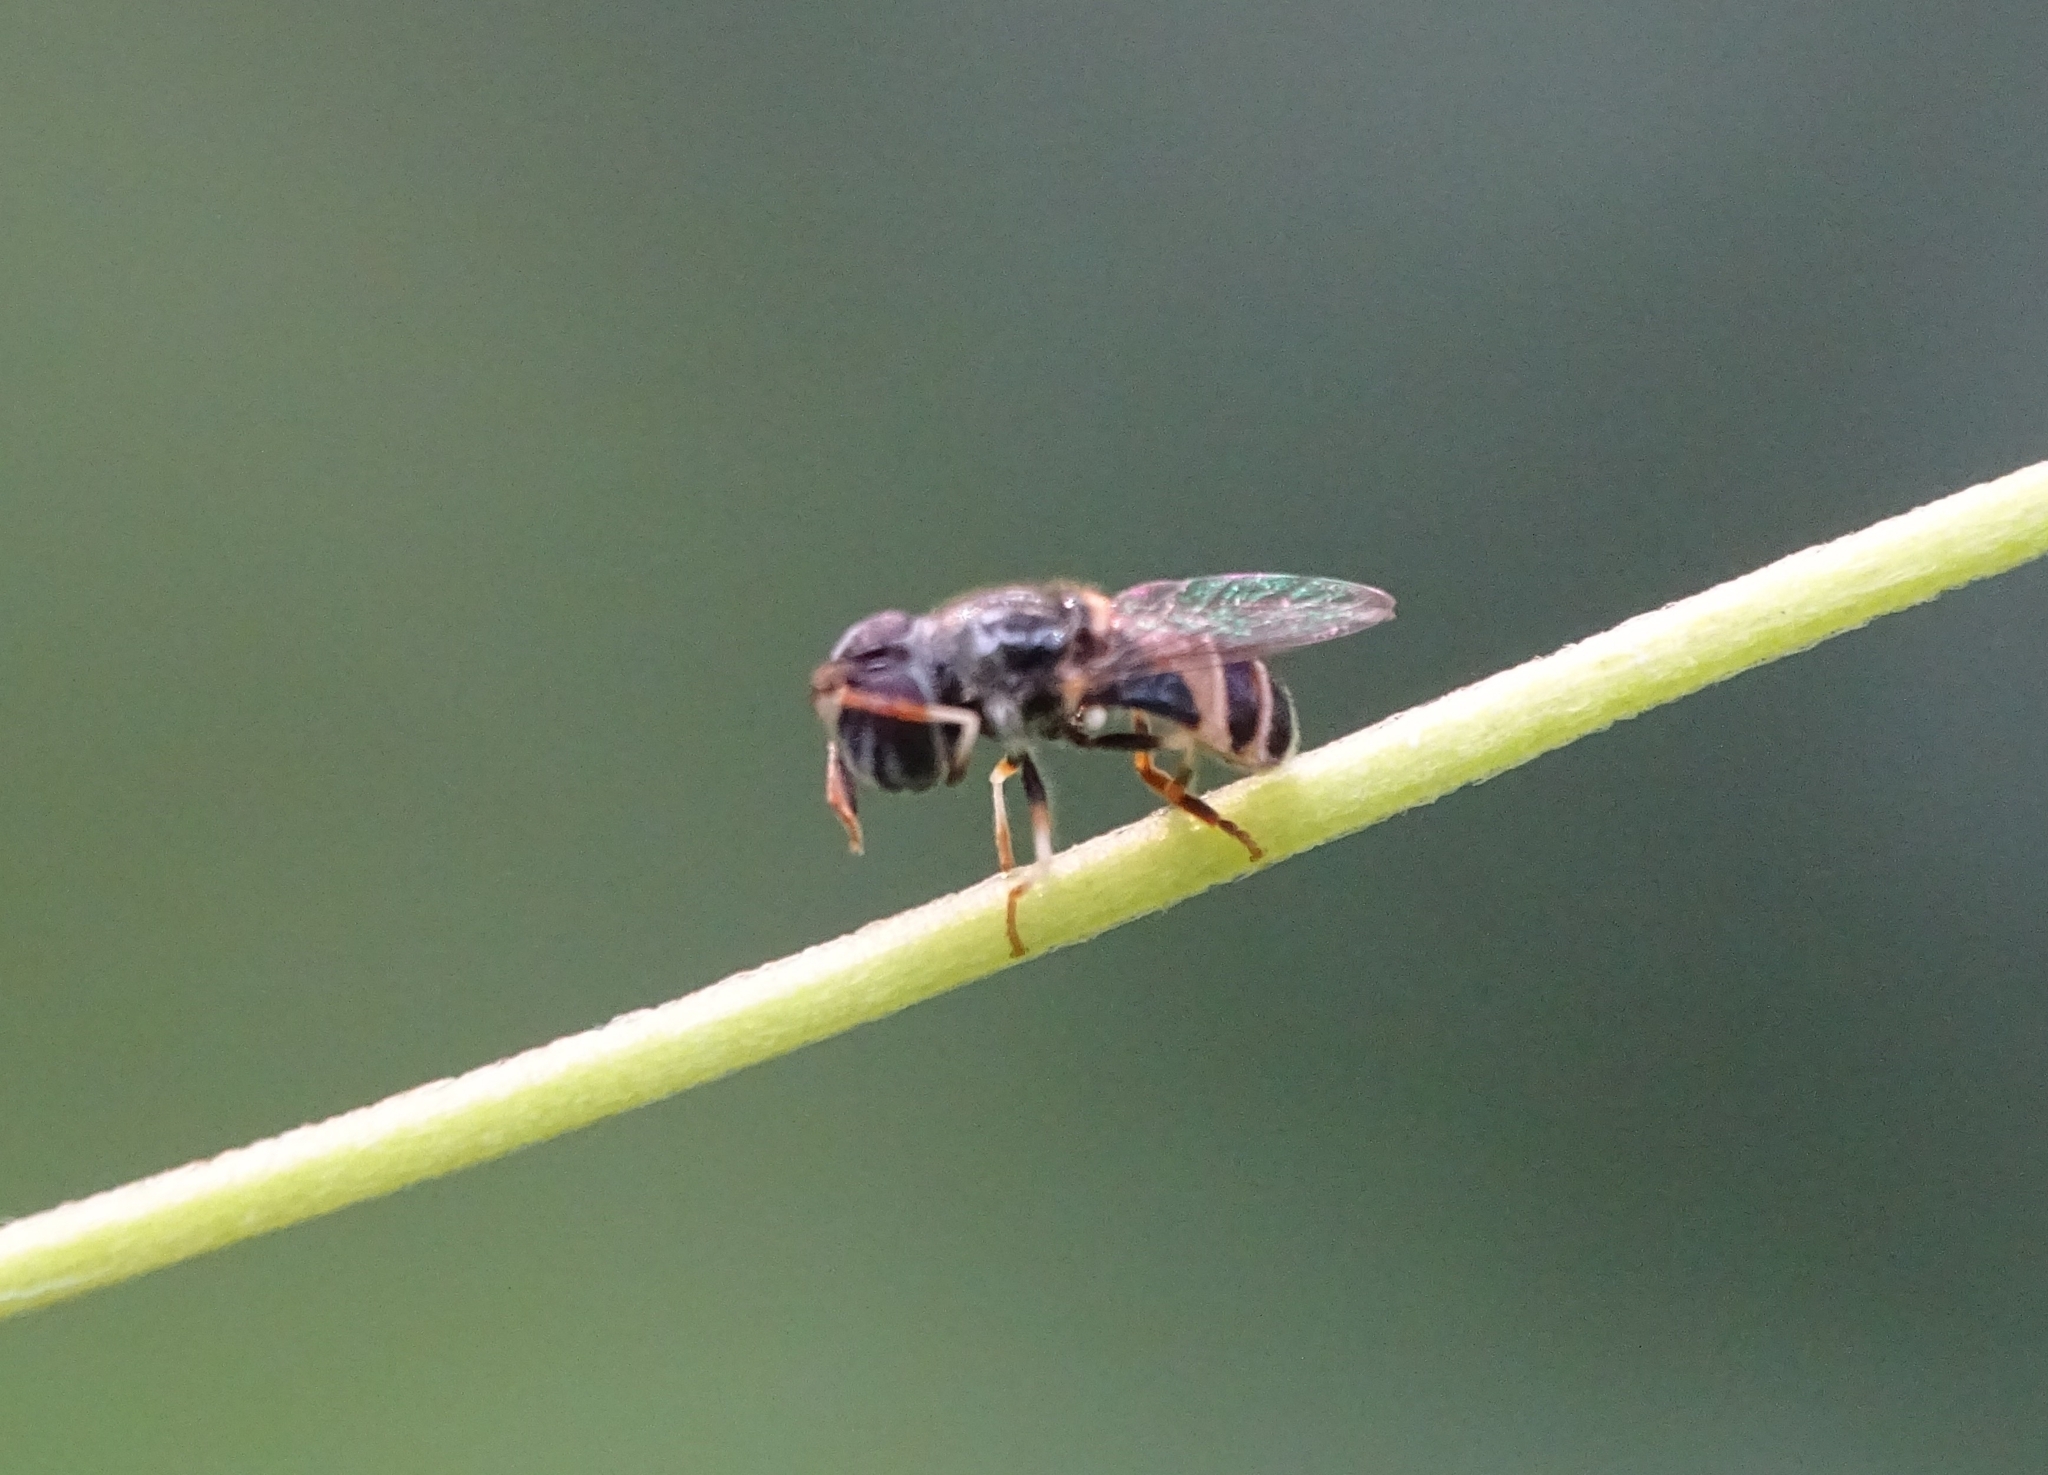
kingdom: Animalia
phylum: Arthropoda
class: Insecta
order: Diptera
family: Syrphidae
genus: Paragus
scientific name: Paragus crenulatus
